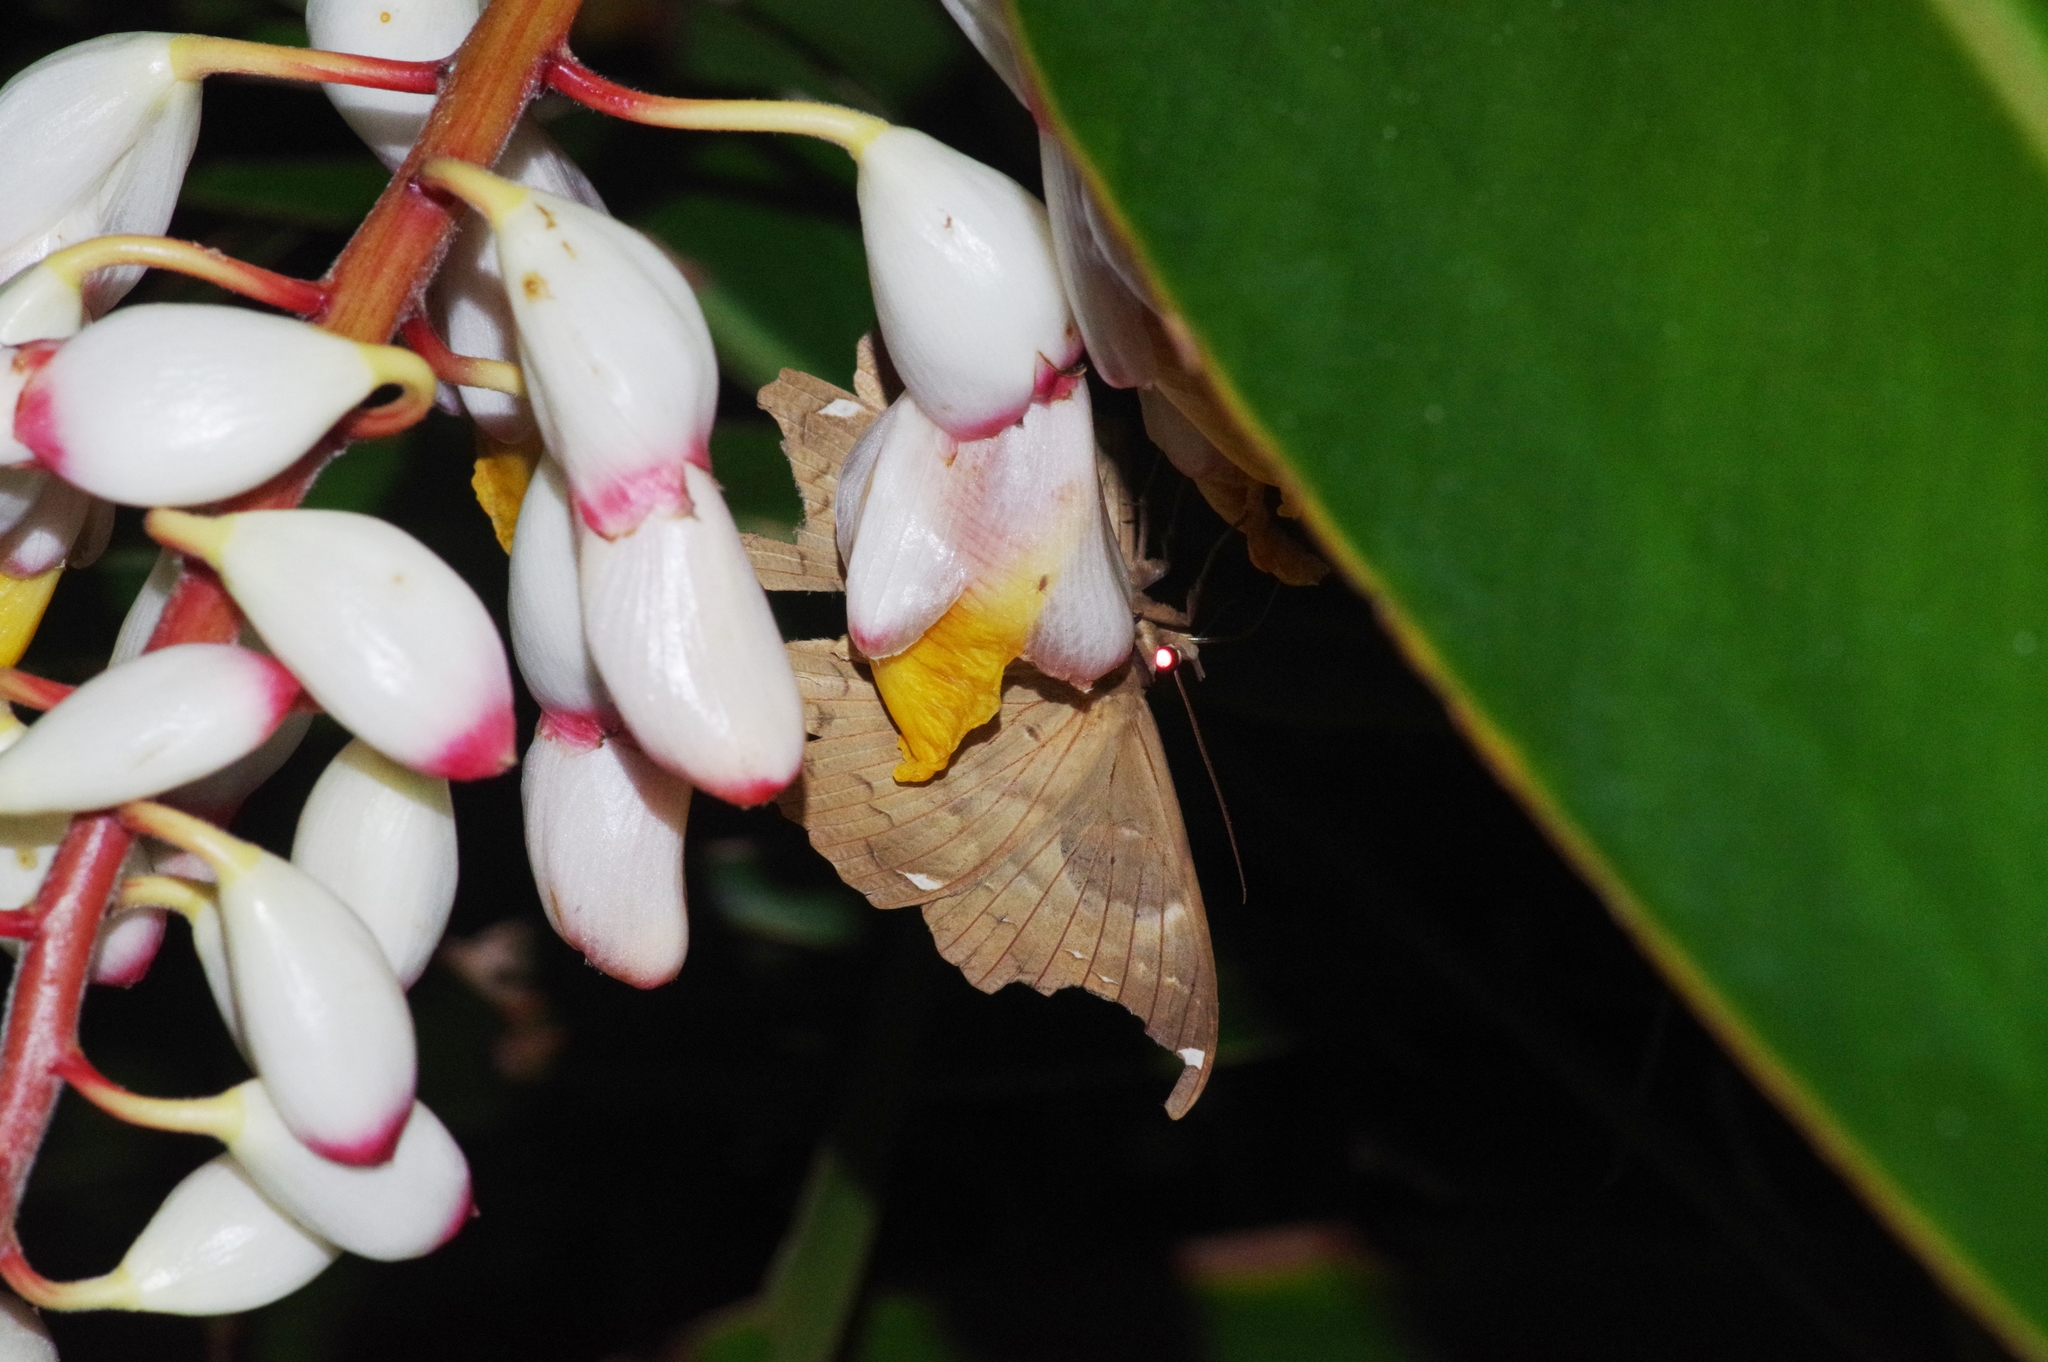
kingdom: Animalia
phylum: Arthropoda
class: Insecta
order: Lepidoptera
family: Erebidae
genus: Erebus
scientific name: Erebus ephesperis
